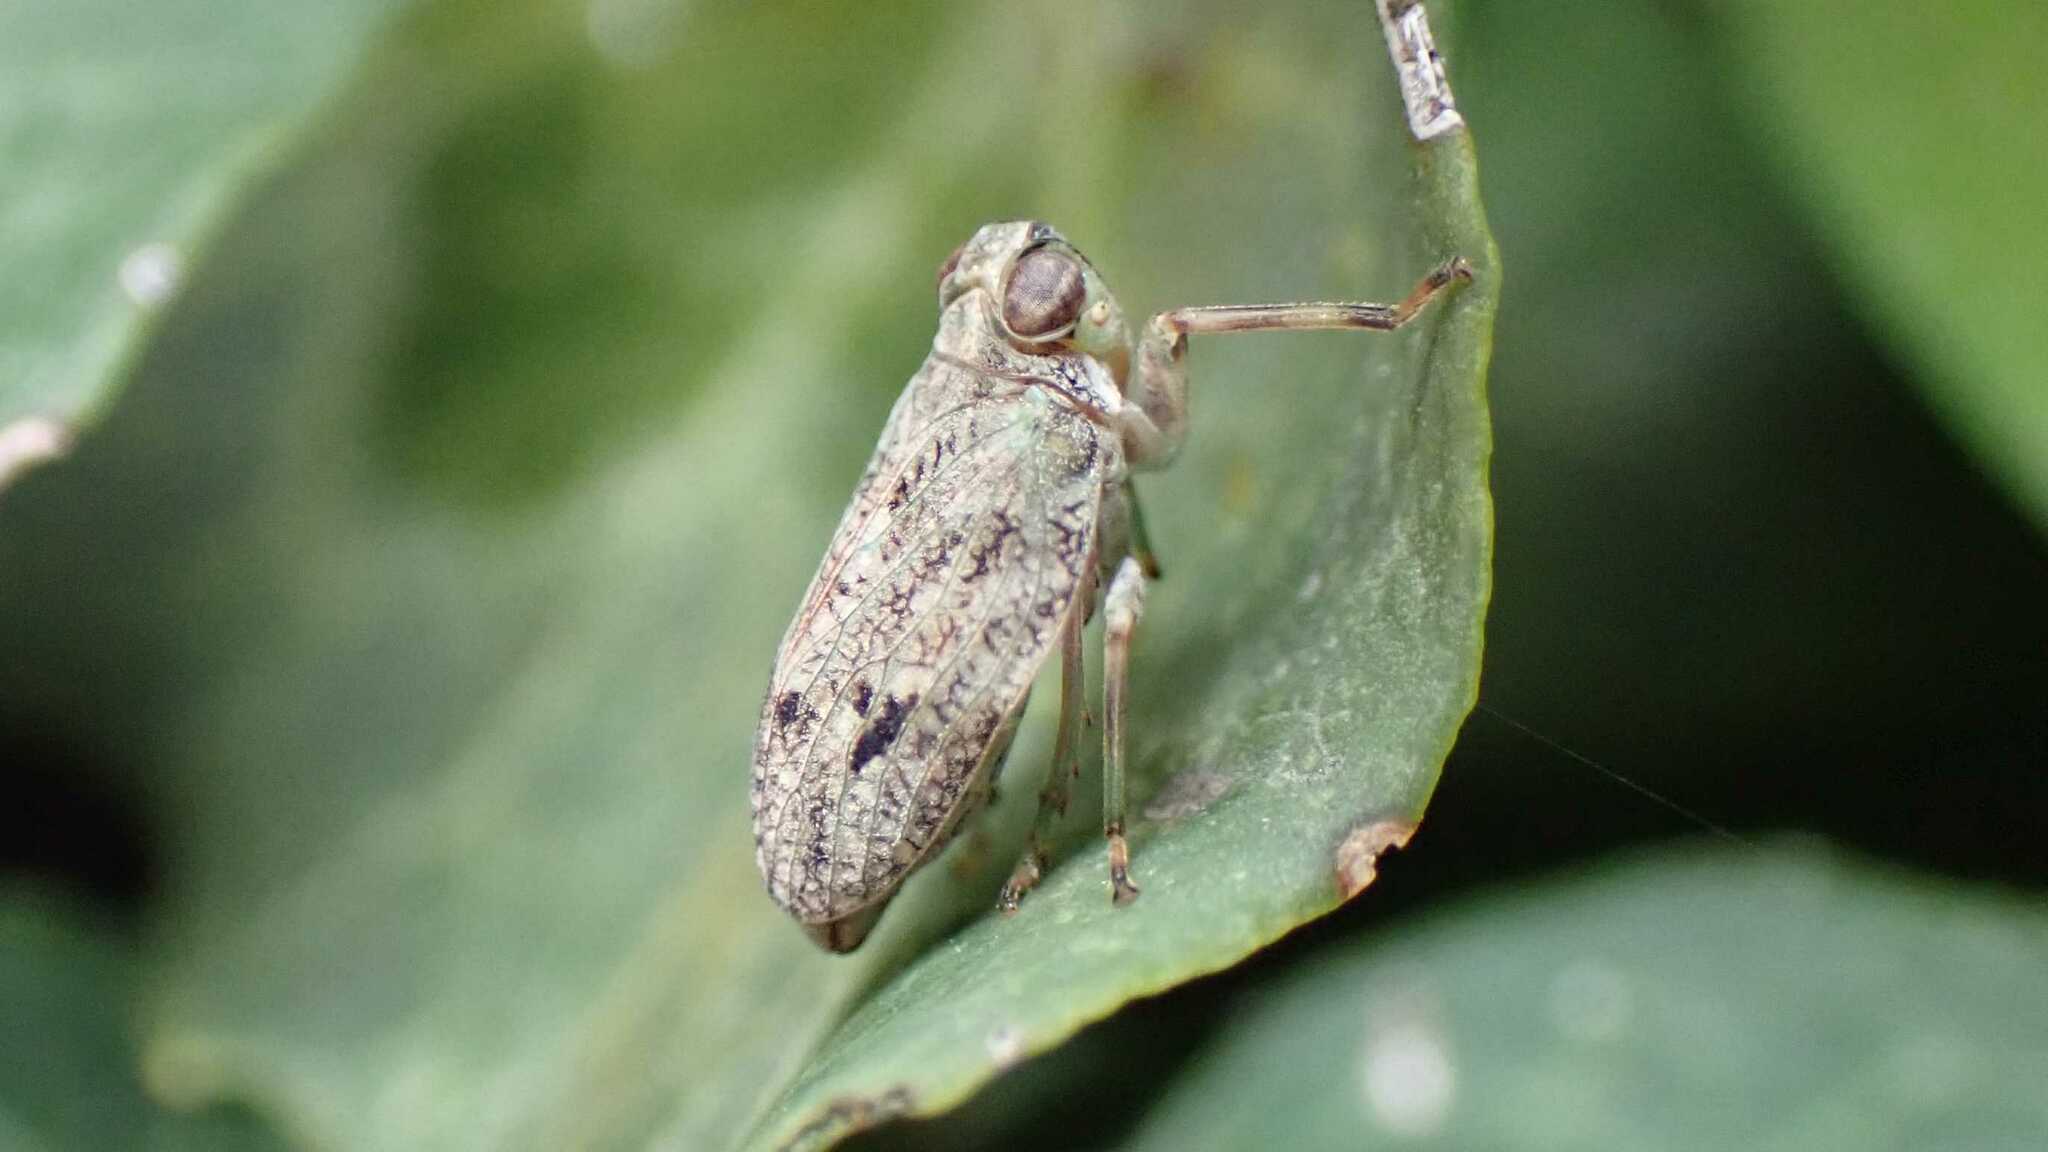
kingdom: Animalia
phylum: Arthropoda
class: Insecta
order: Hemiptera
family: Issidae
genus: Issus
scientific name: Issus coleoptratus
